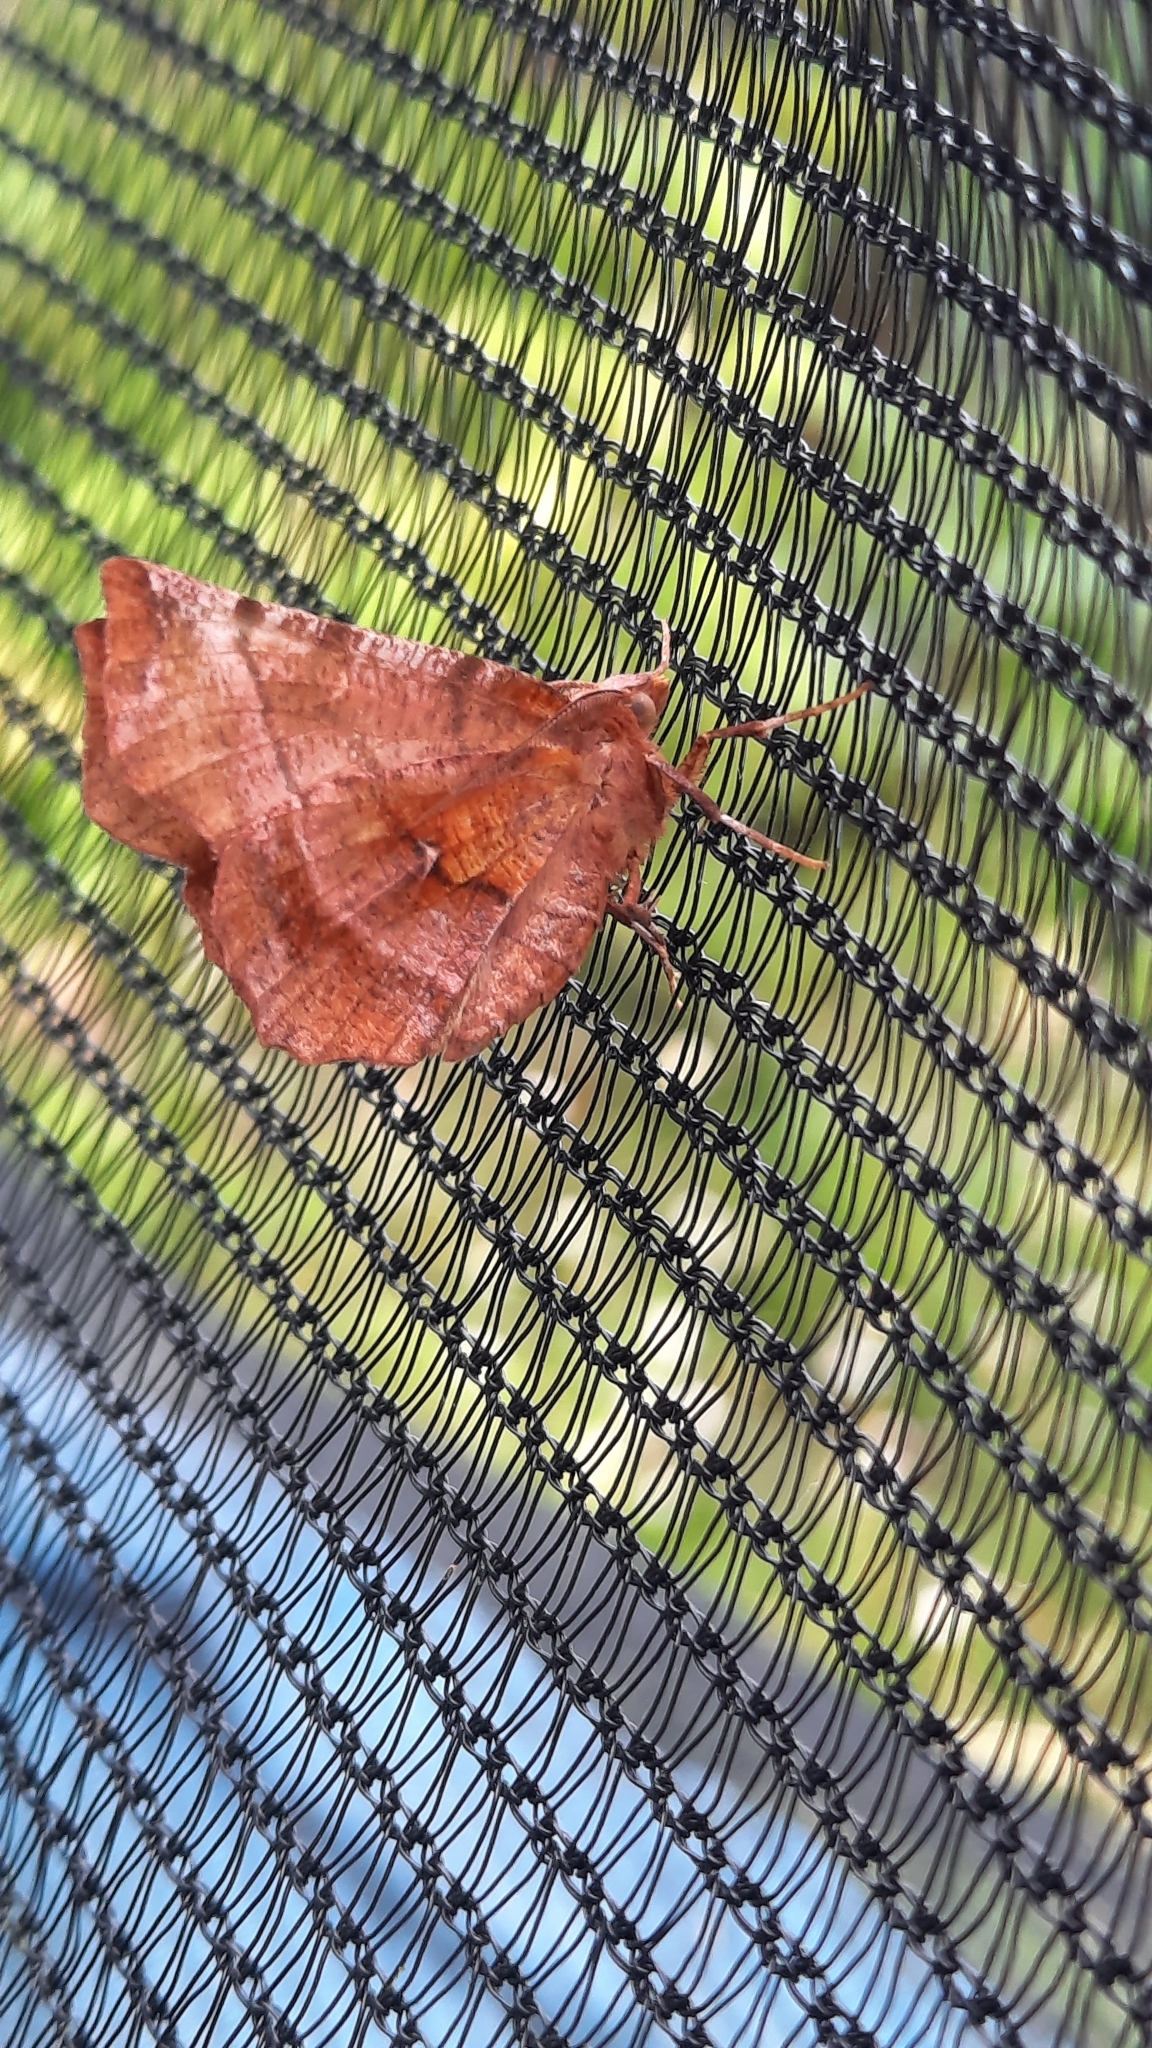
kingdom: Animalia
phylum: Arthropoda
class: Insecta
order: Lepidoptera
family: Geometridae
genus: Selenia
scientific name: Selenia dentaria
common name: Early thorn
